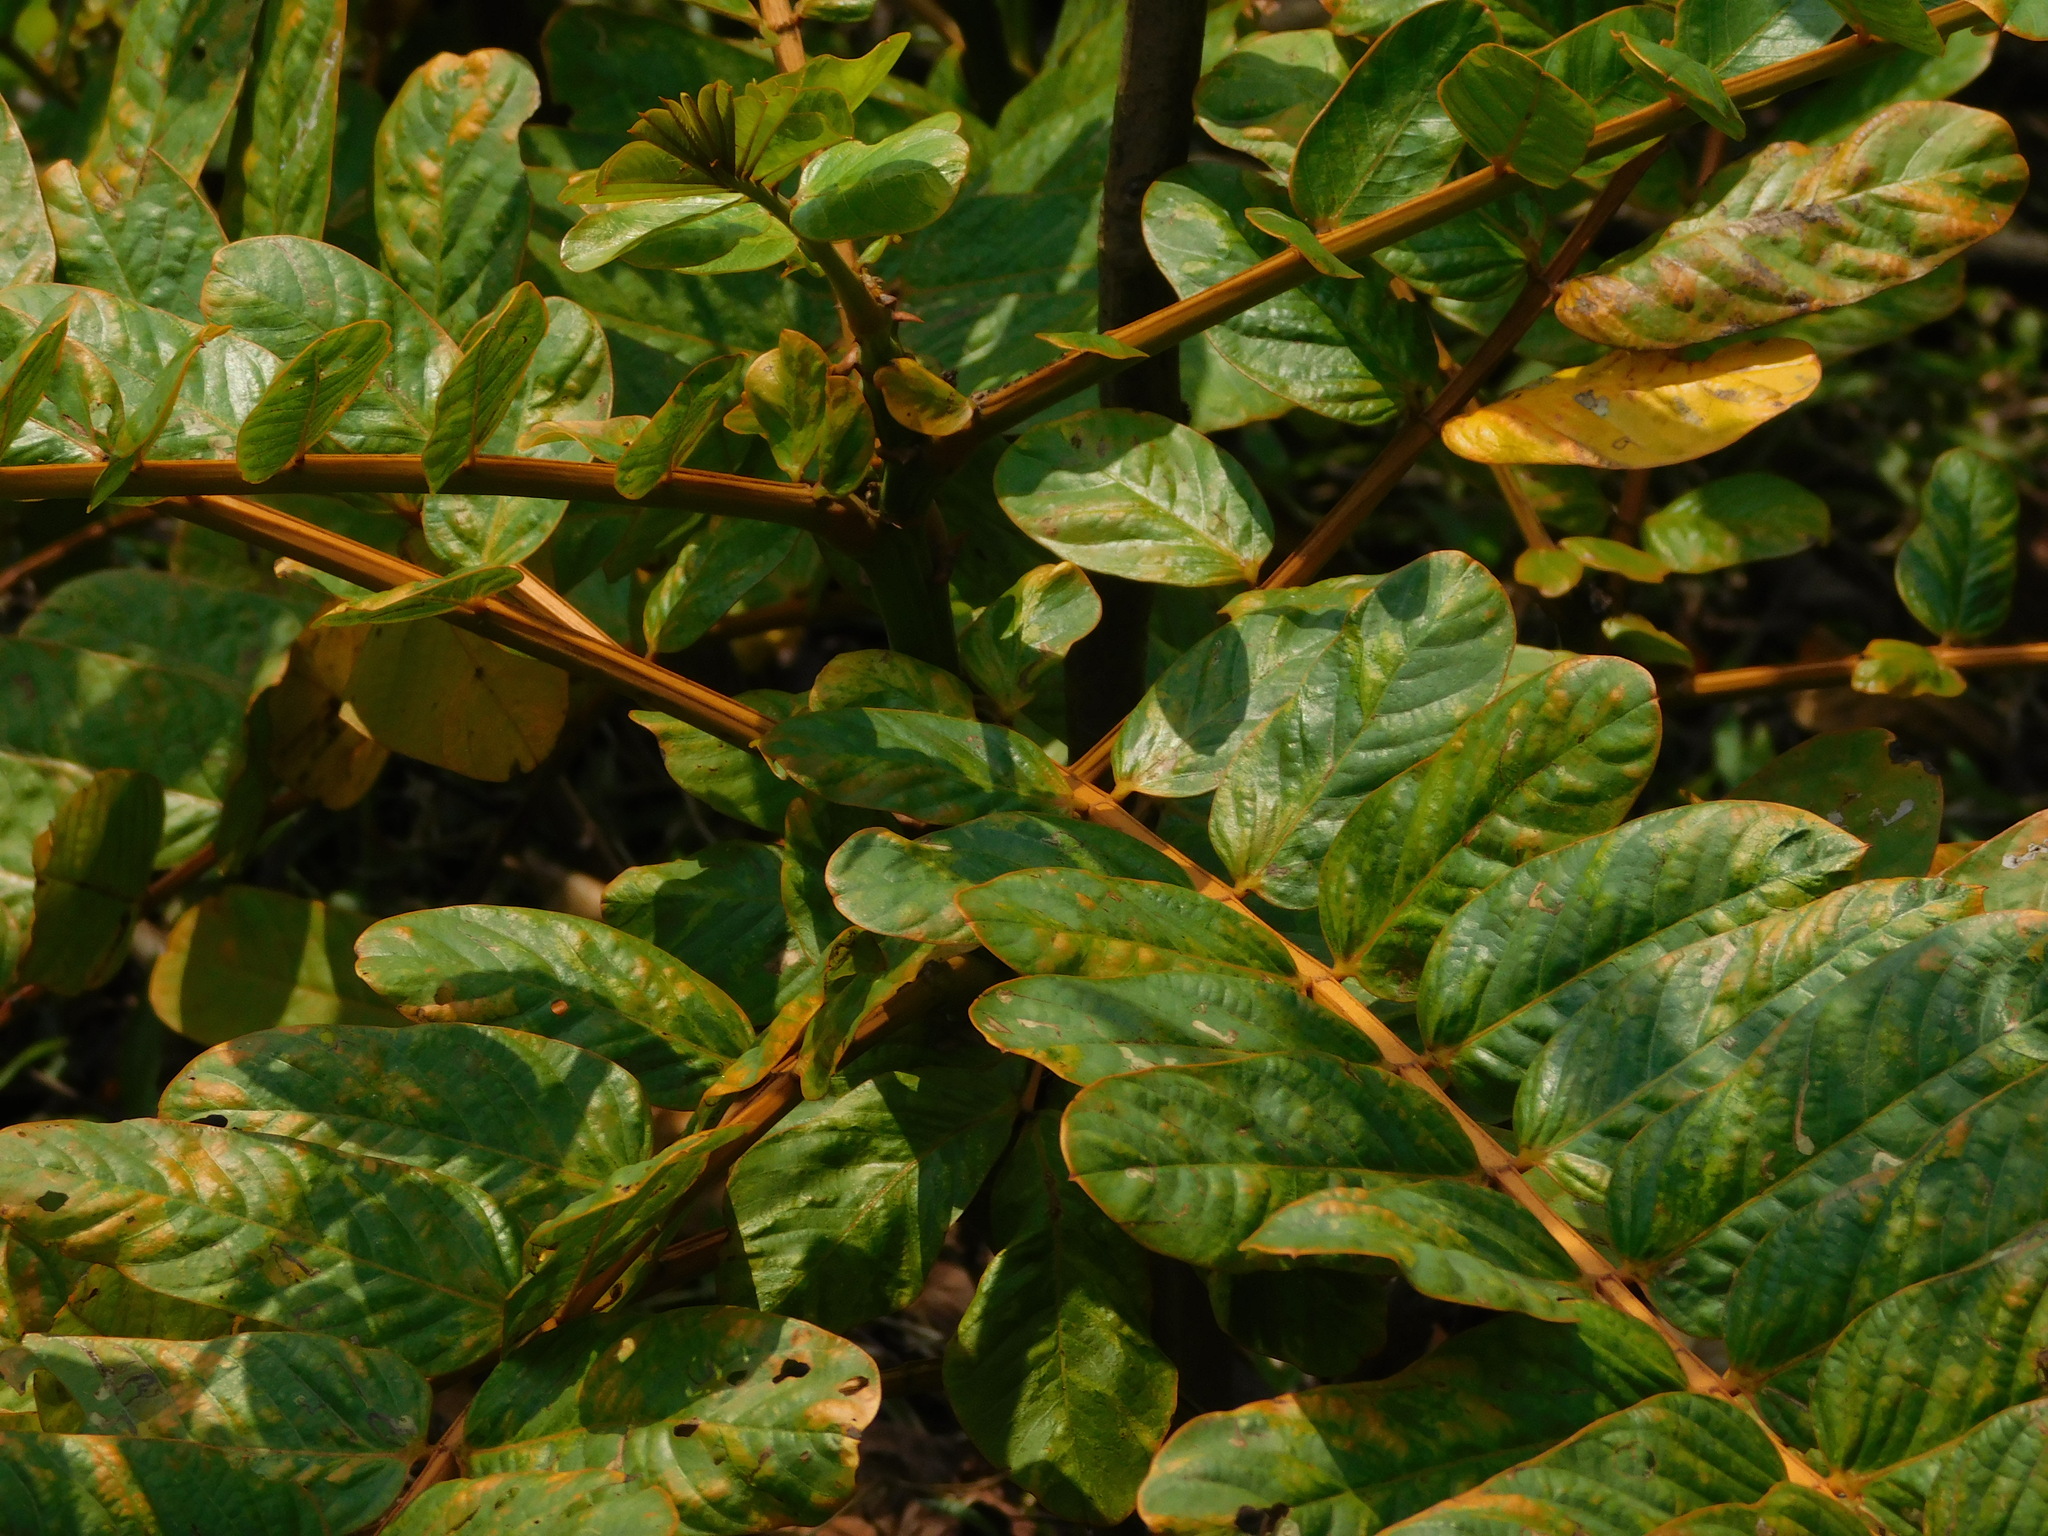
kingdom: Plantae
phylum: Tracheophyta
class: Magnoliopsida
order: Fabales
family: Fabaceae
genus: Senna
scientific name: Senna alata
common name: Emperor's candlesticks
